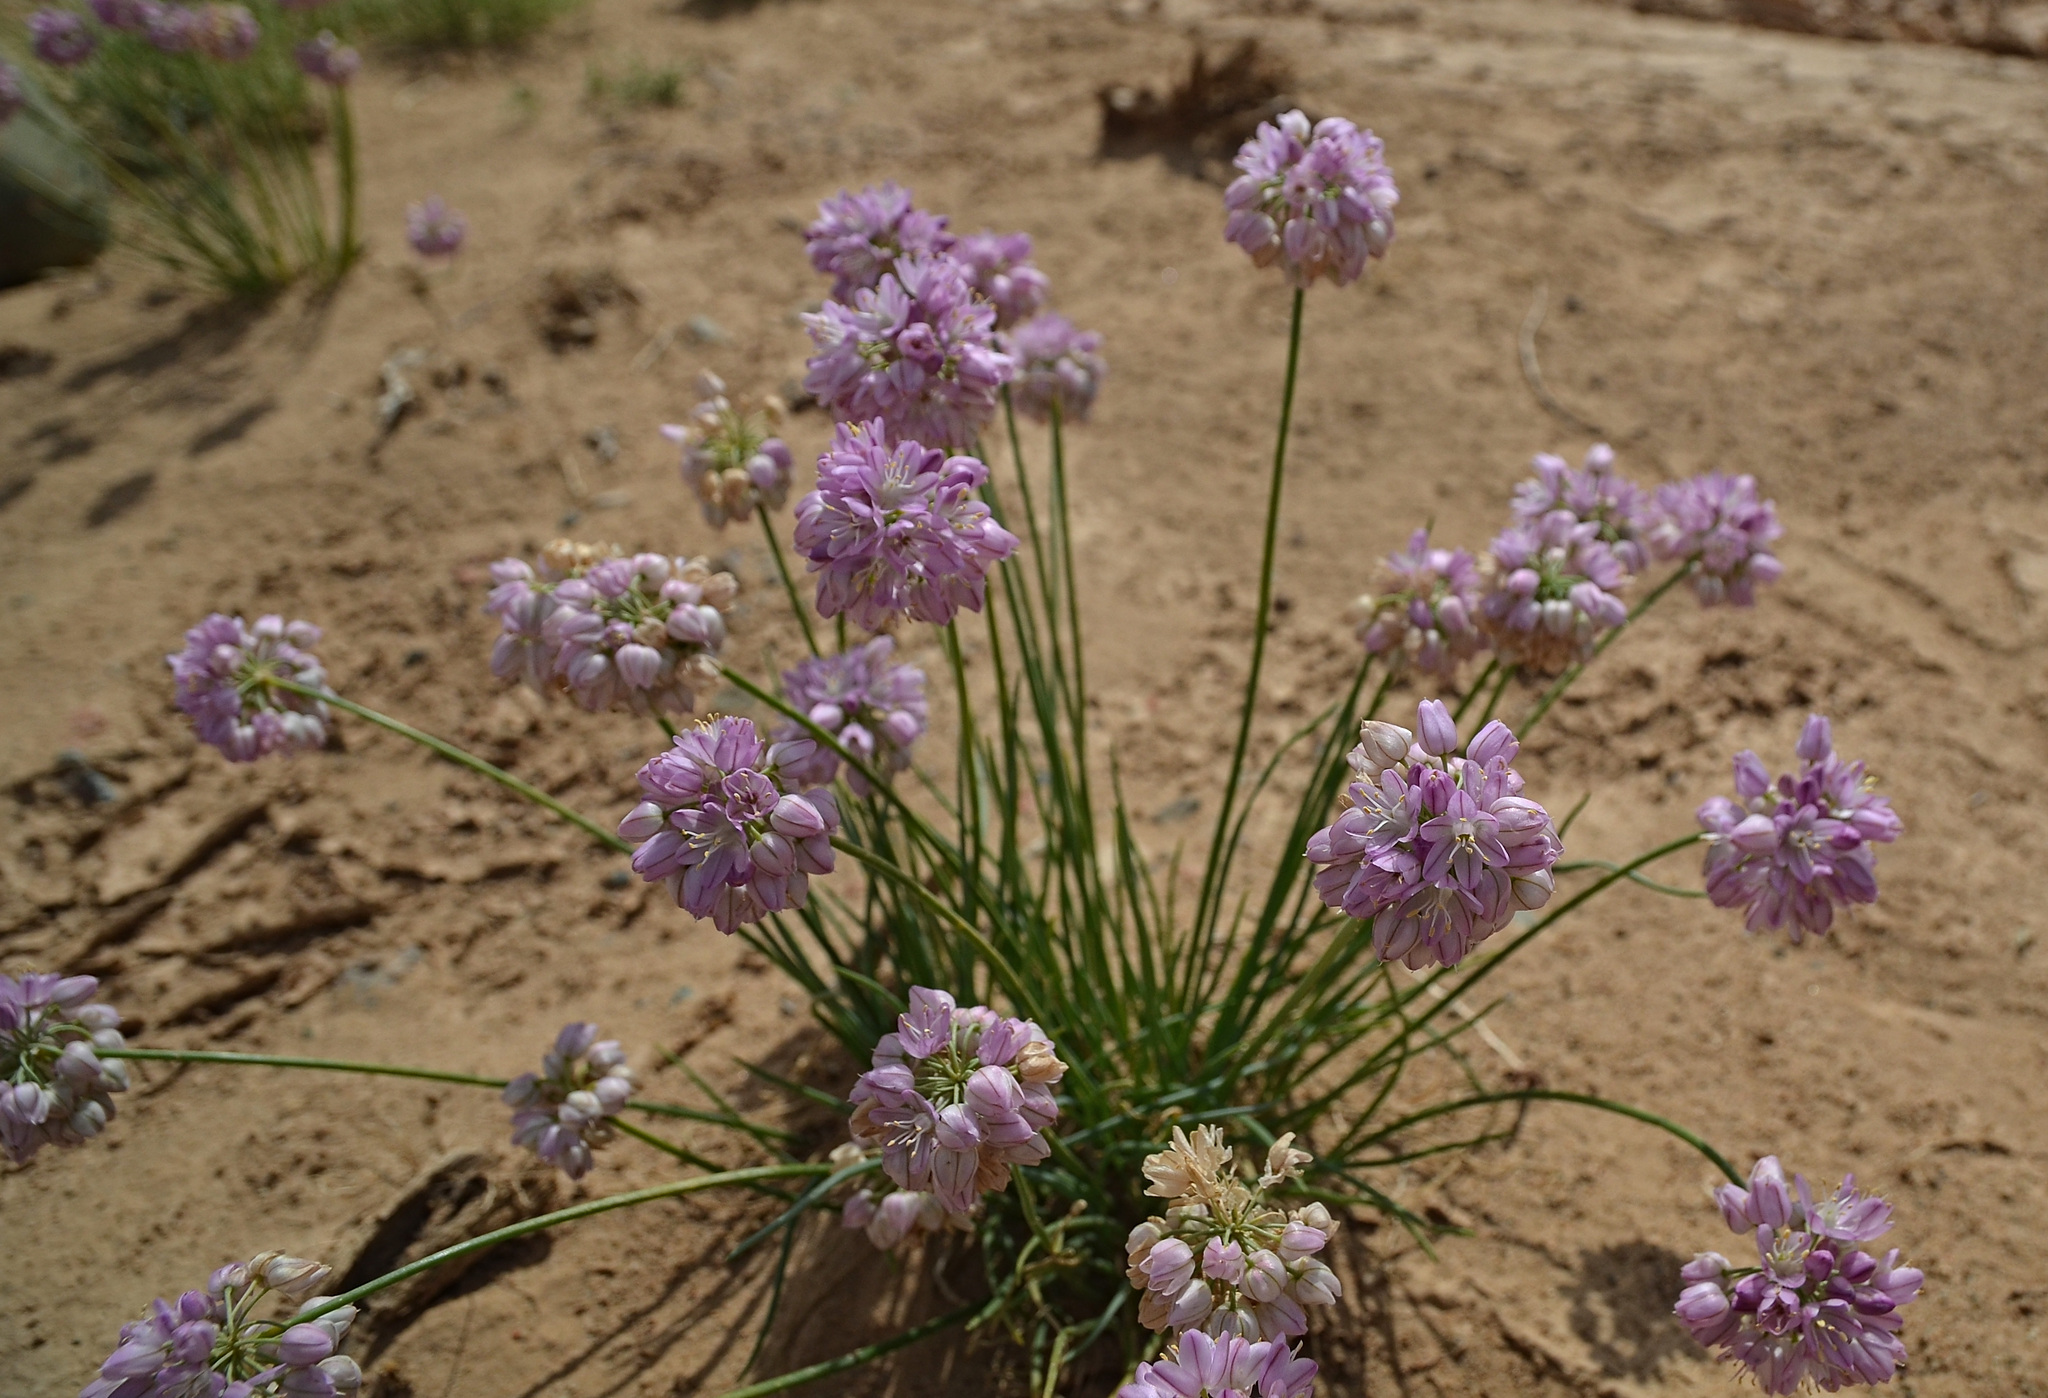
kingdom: Plantae
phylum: Tracheophyta
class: Liliopsida
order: Asparagales
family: Amaryllidaceae
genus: Allium
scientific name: Allium mongolicum
